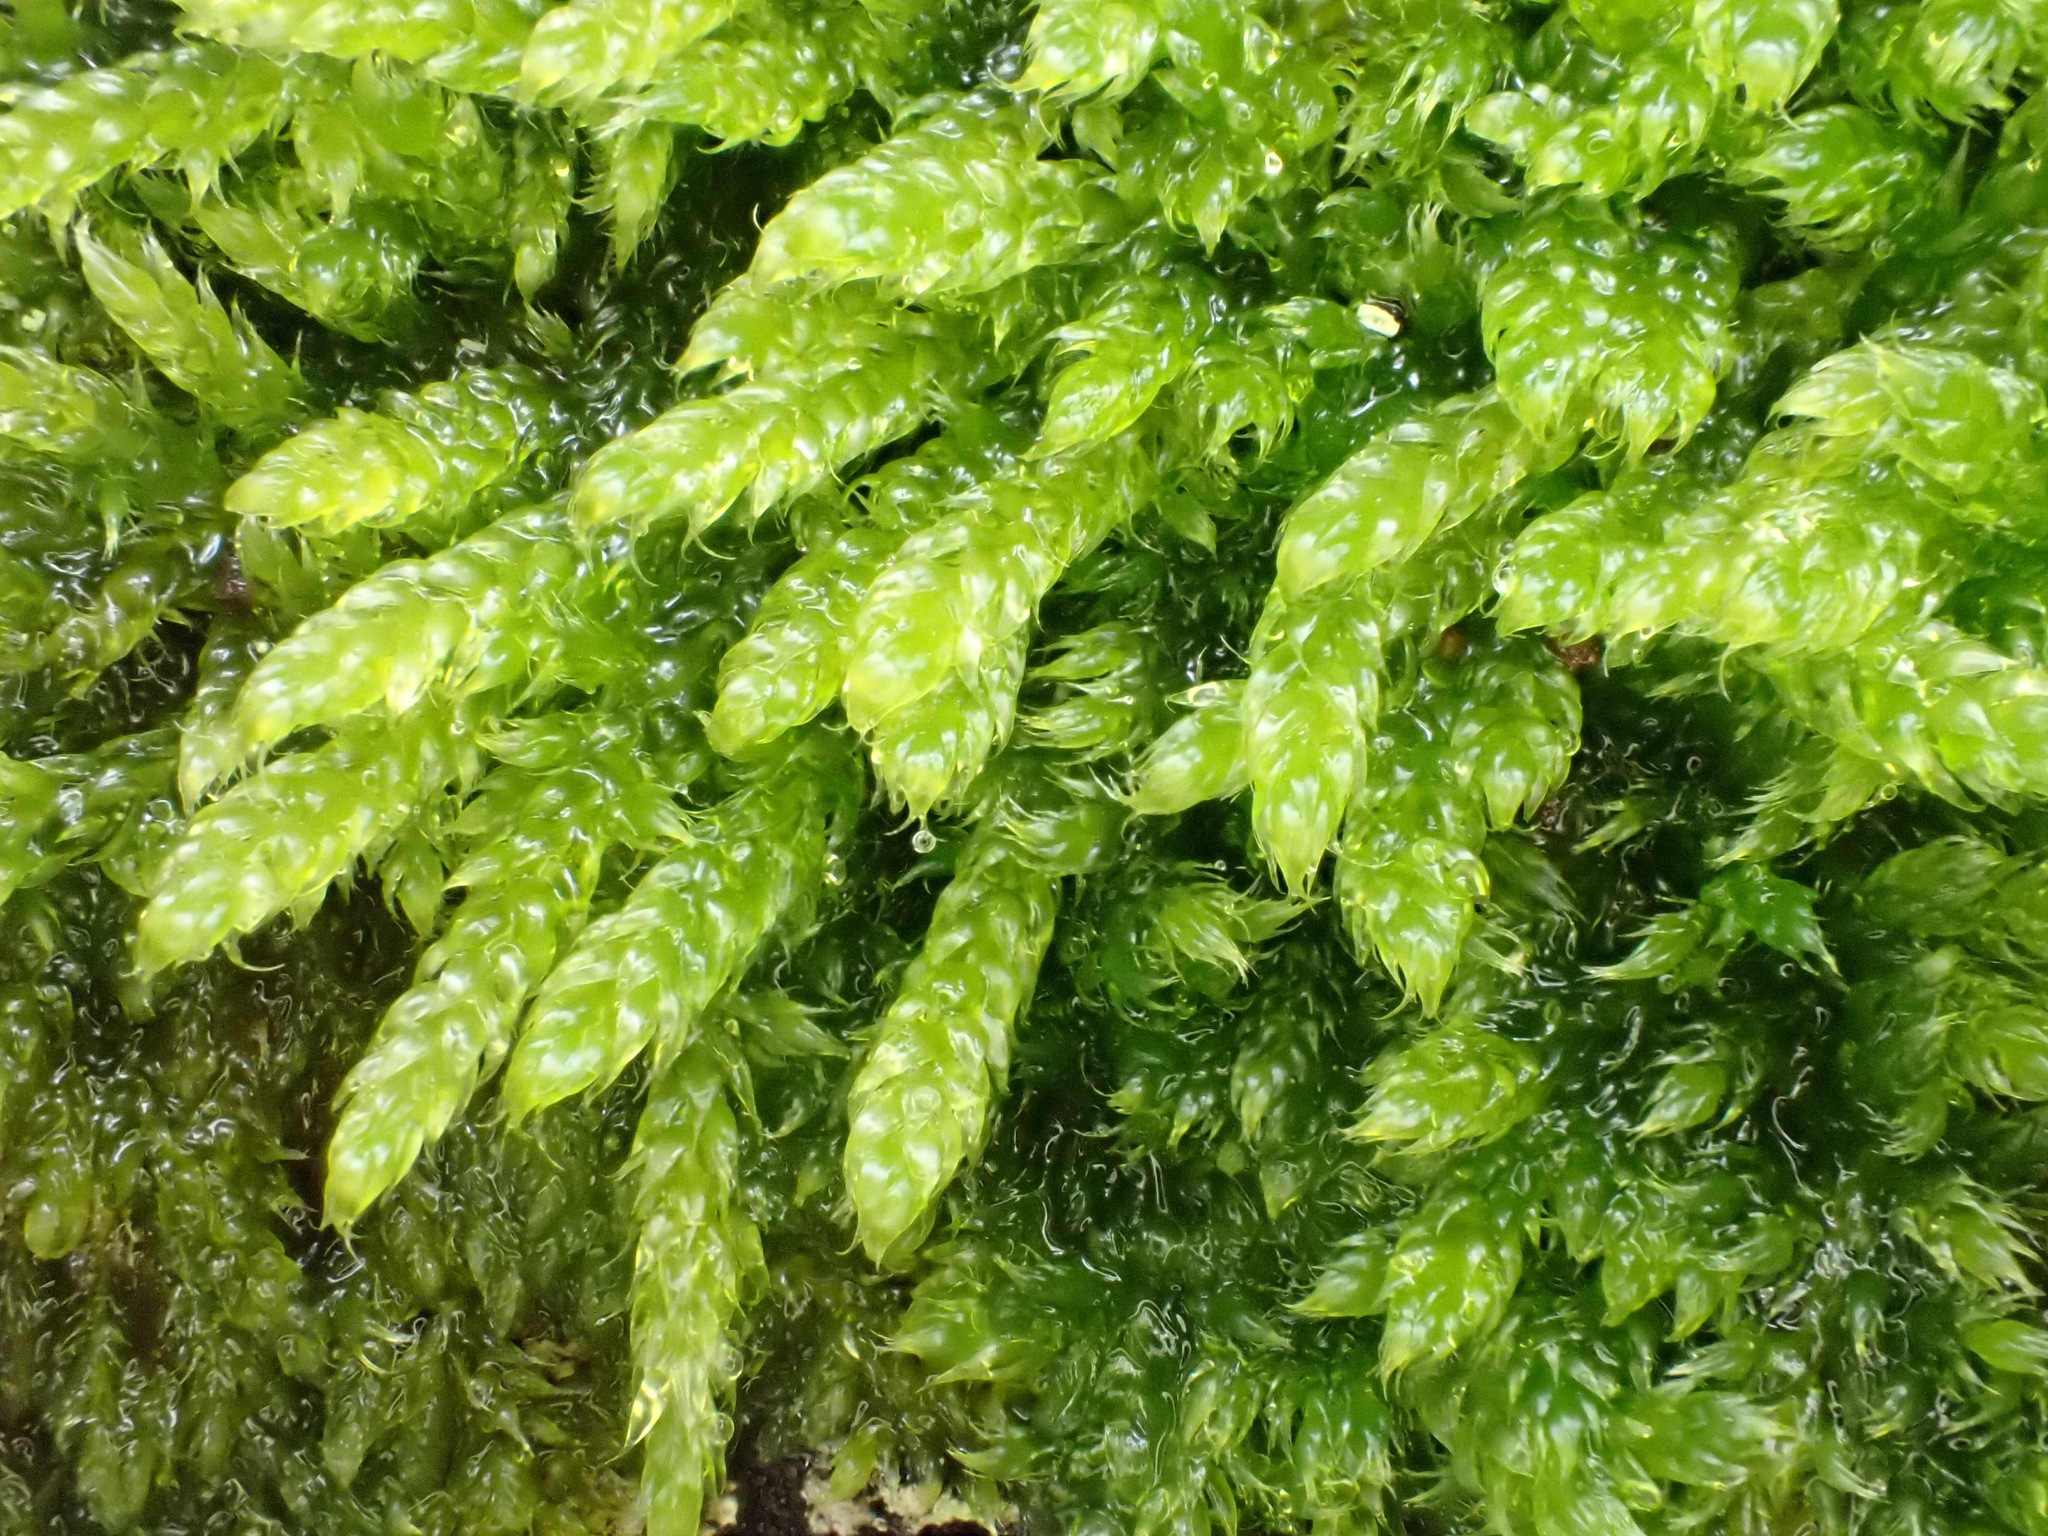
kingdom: Plantae
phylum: Bryophyta
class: Bryopsida
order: Hypnales
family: Hypnaceae
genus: Hypnum
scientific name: Hypnum cupressiforme
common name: Cypress-leaved plait-moss
